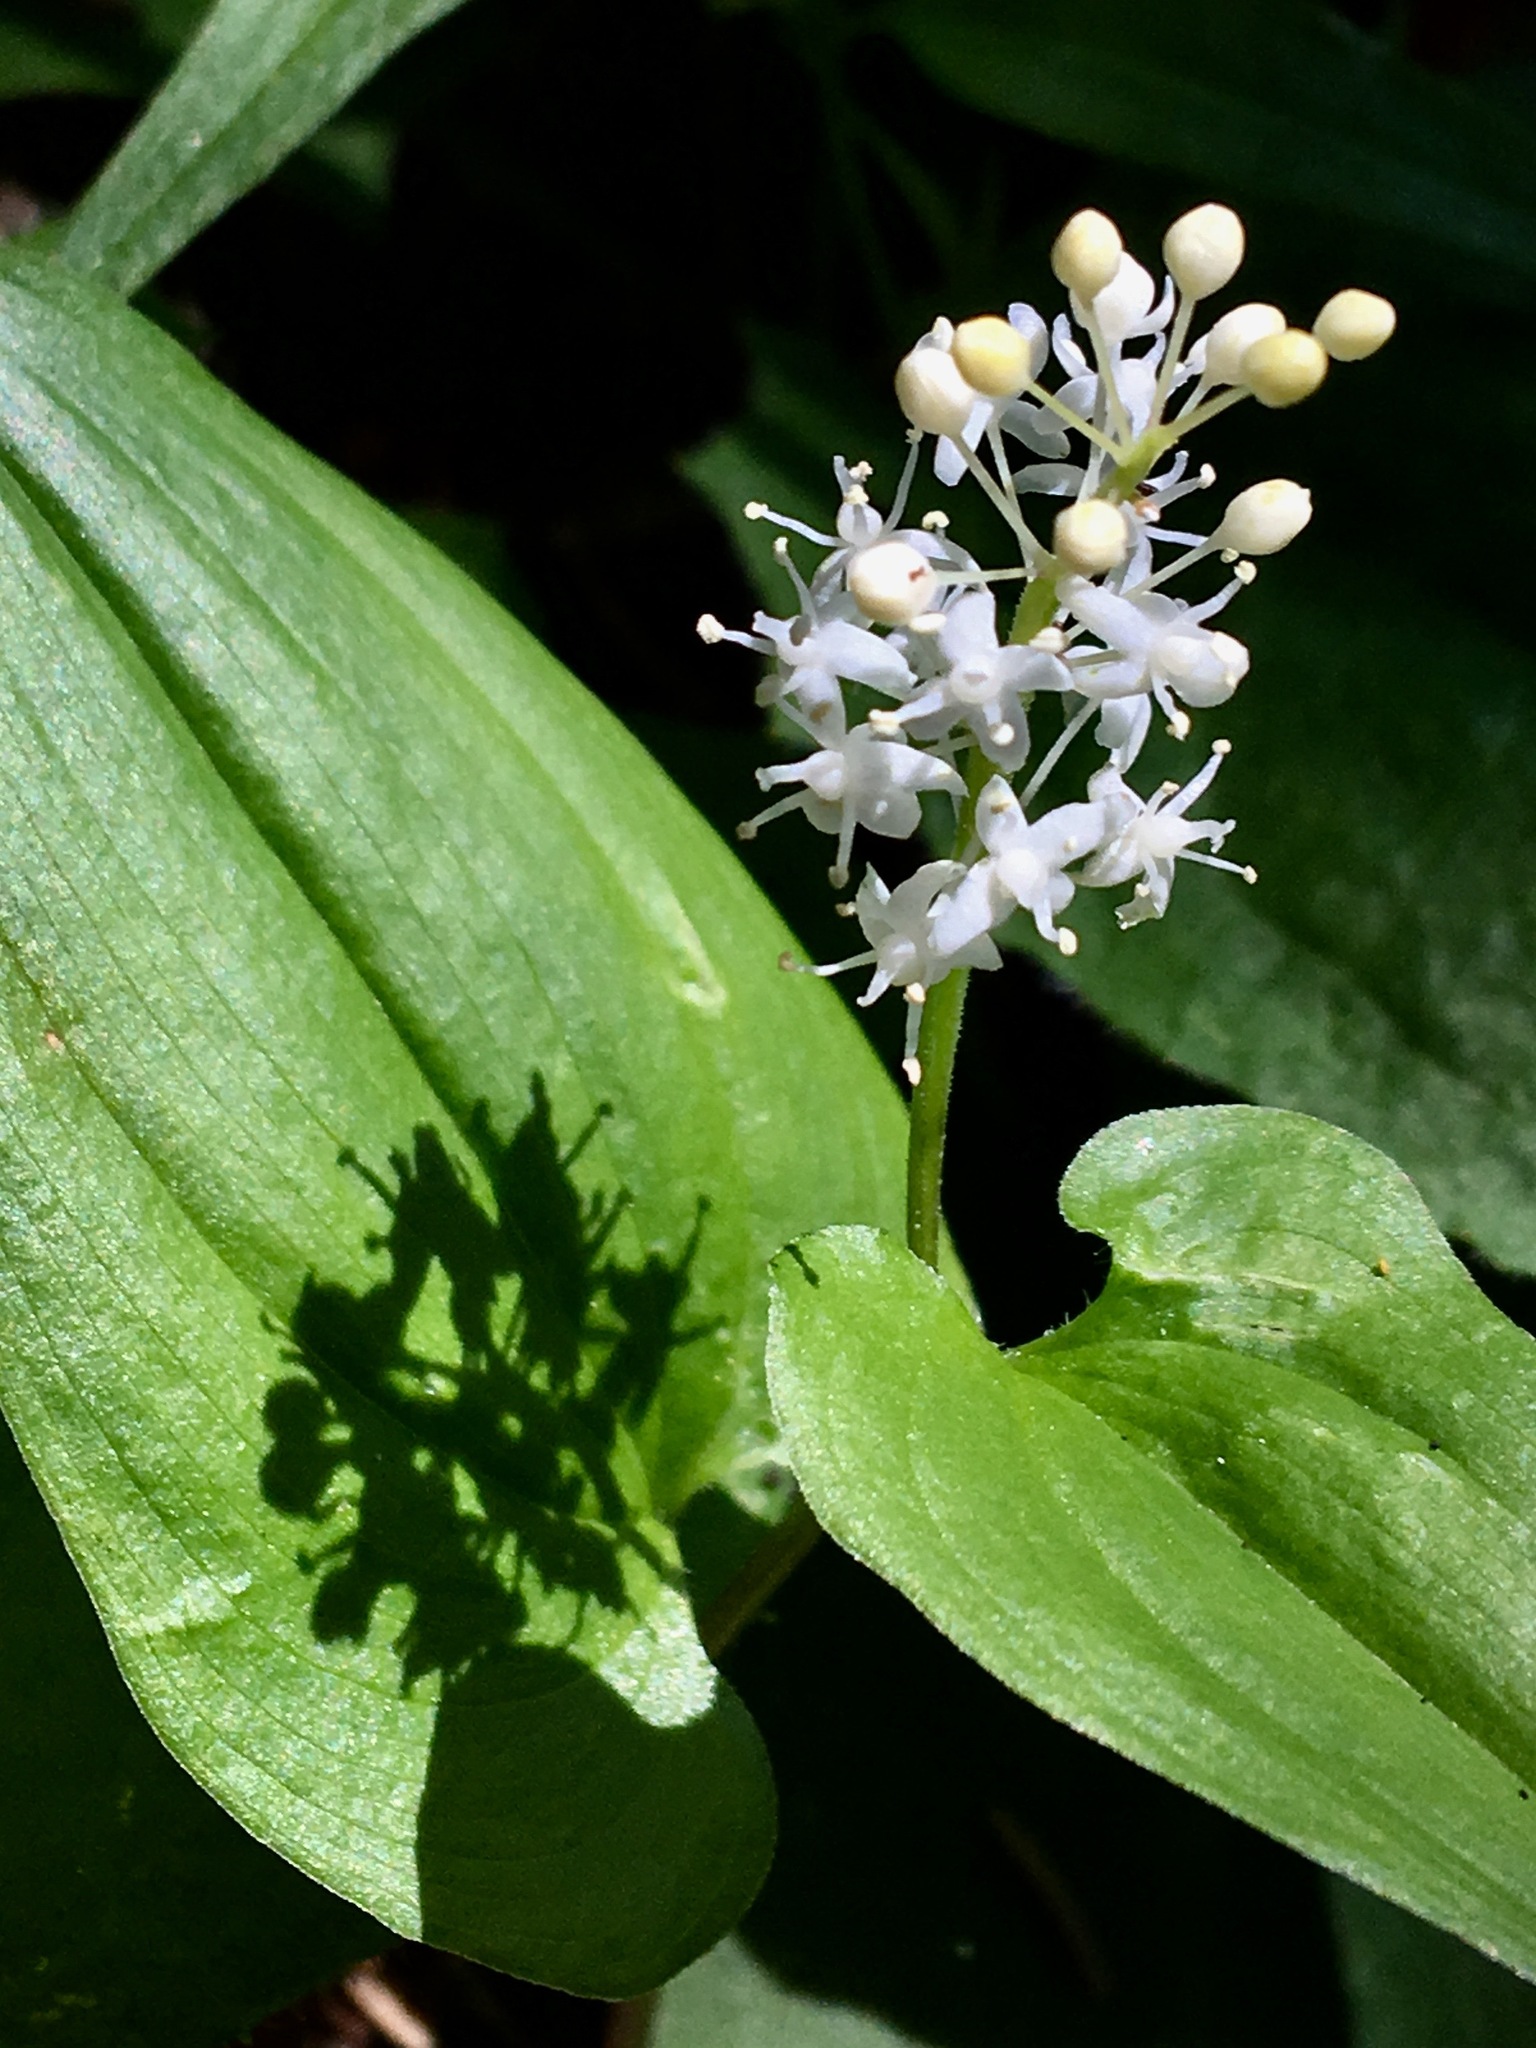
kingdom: Plantae
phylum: Tracheophyta
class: Liliopsida
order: Asparagales
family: Asparagaceae
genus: Maianthemum
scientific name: Maianthemum bifolium
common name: May lily
